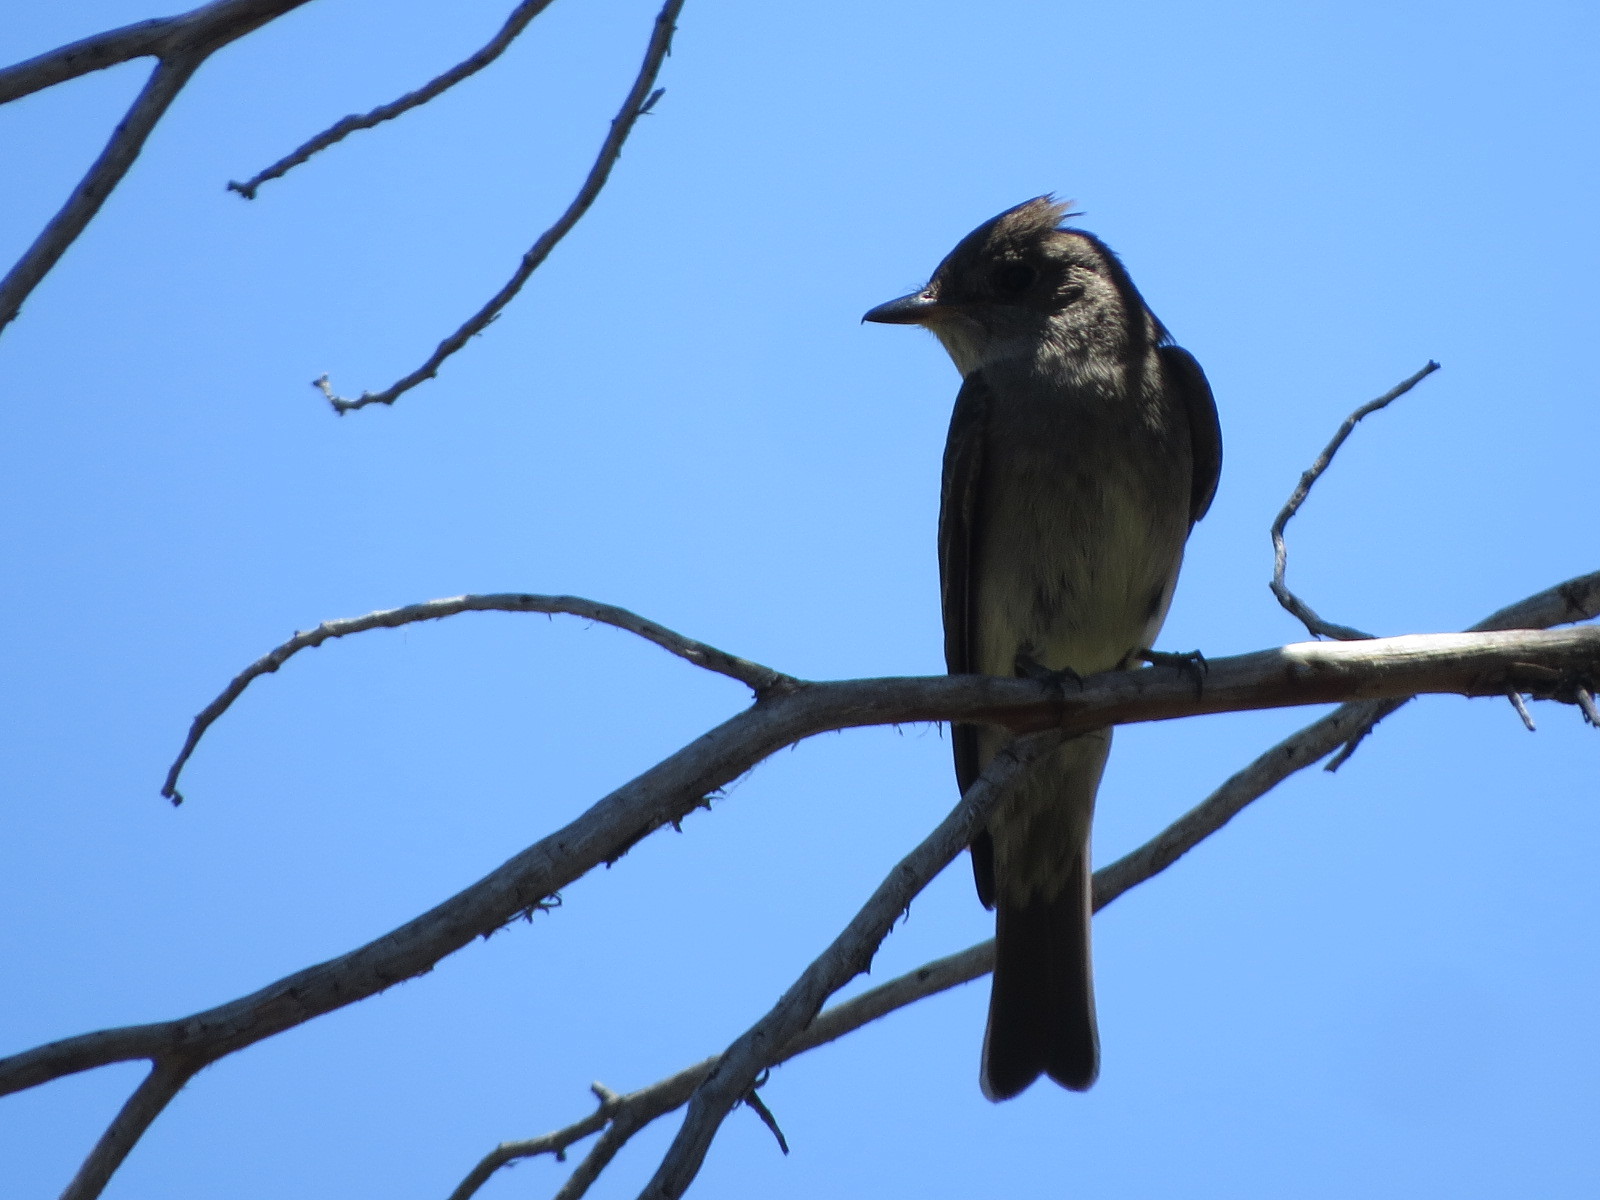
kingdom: Animalia
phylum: Chordata
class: Aves
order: Passeriformes
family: Tyrannidae
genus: Contopus
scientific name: Contopus sordidulus
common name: Western wood-pewee
